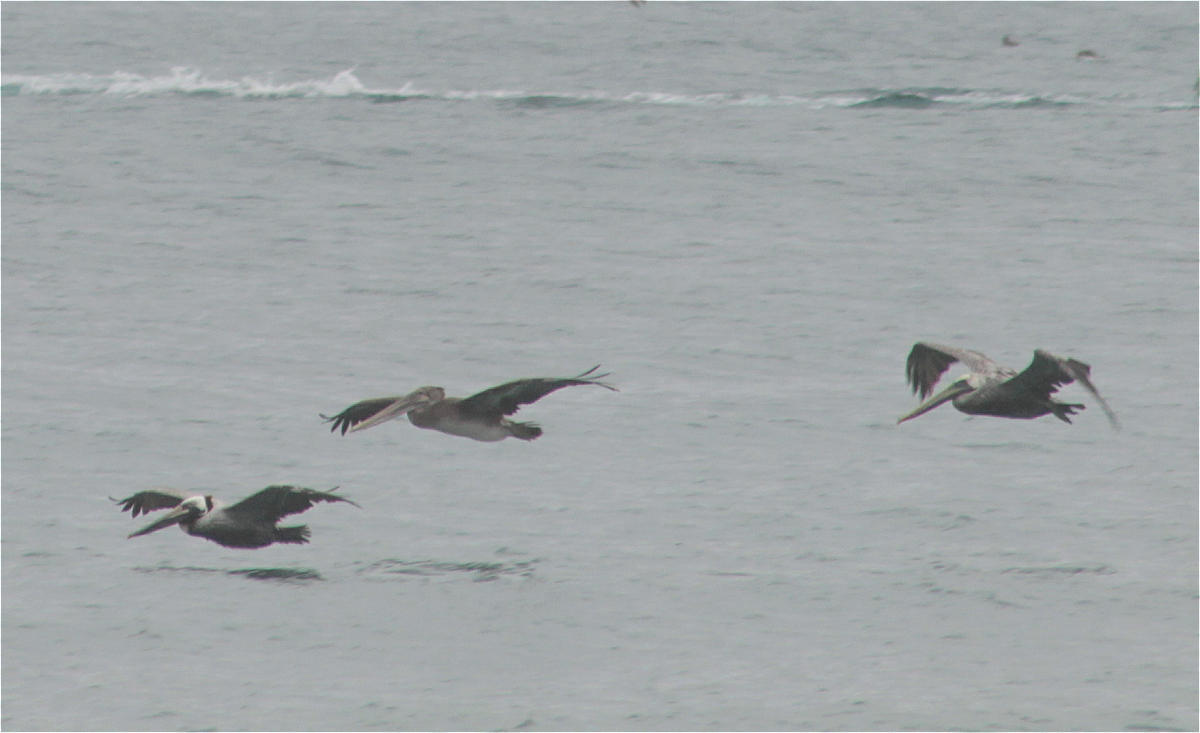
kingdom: Animalia
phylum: Chordata
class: Aves
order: Pelecaniformes
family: Pelecanidae
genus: Pelecanus
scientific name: Pelecanus occidentalis
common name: Brown pelican
